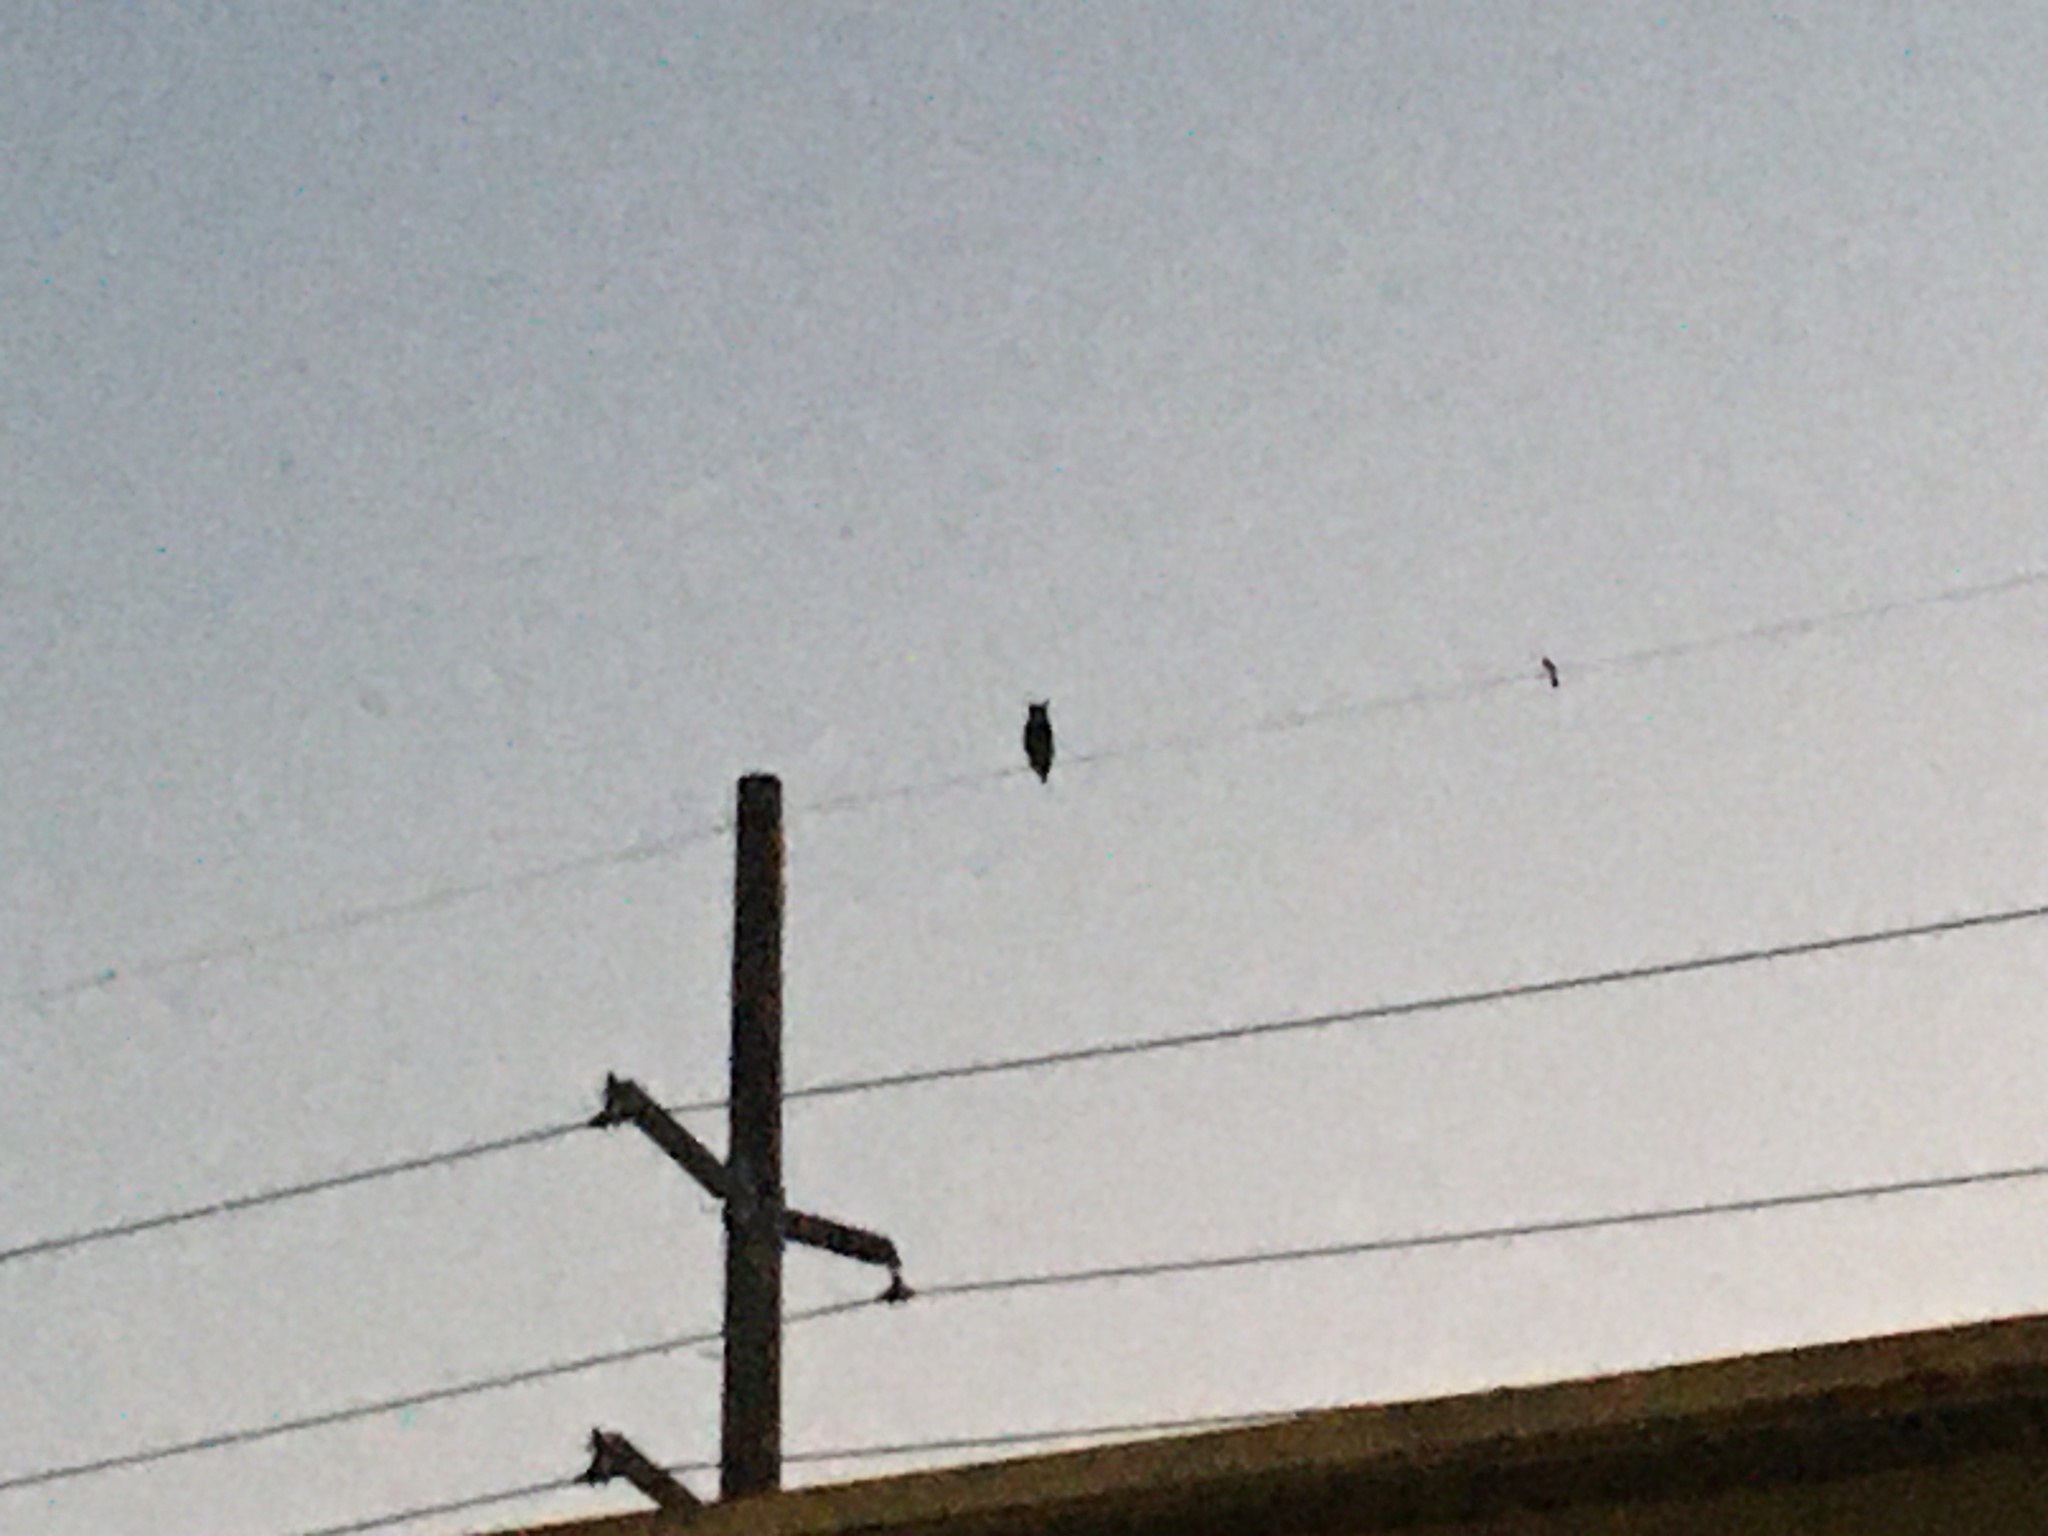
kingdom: Animalia
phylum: Chordata
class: Aves
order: Strigiformes
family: Strigidae
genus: Bubo
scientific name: Bubo virginianus
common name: Great horned owl
